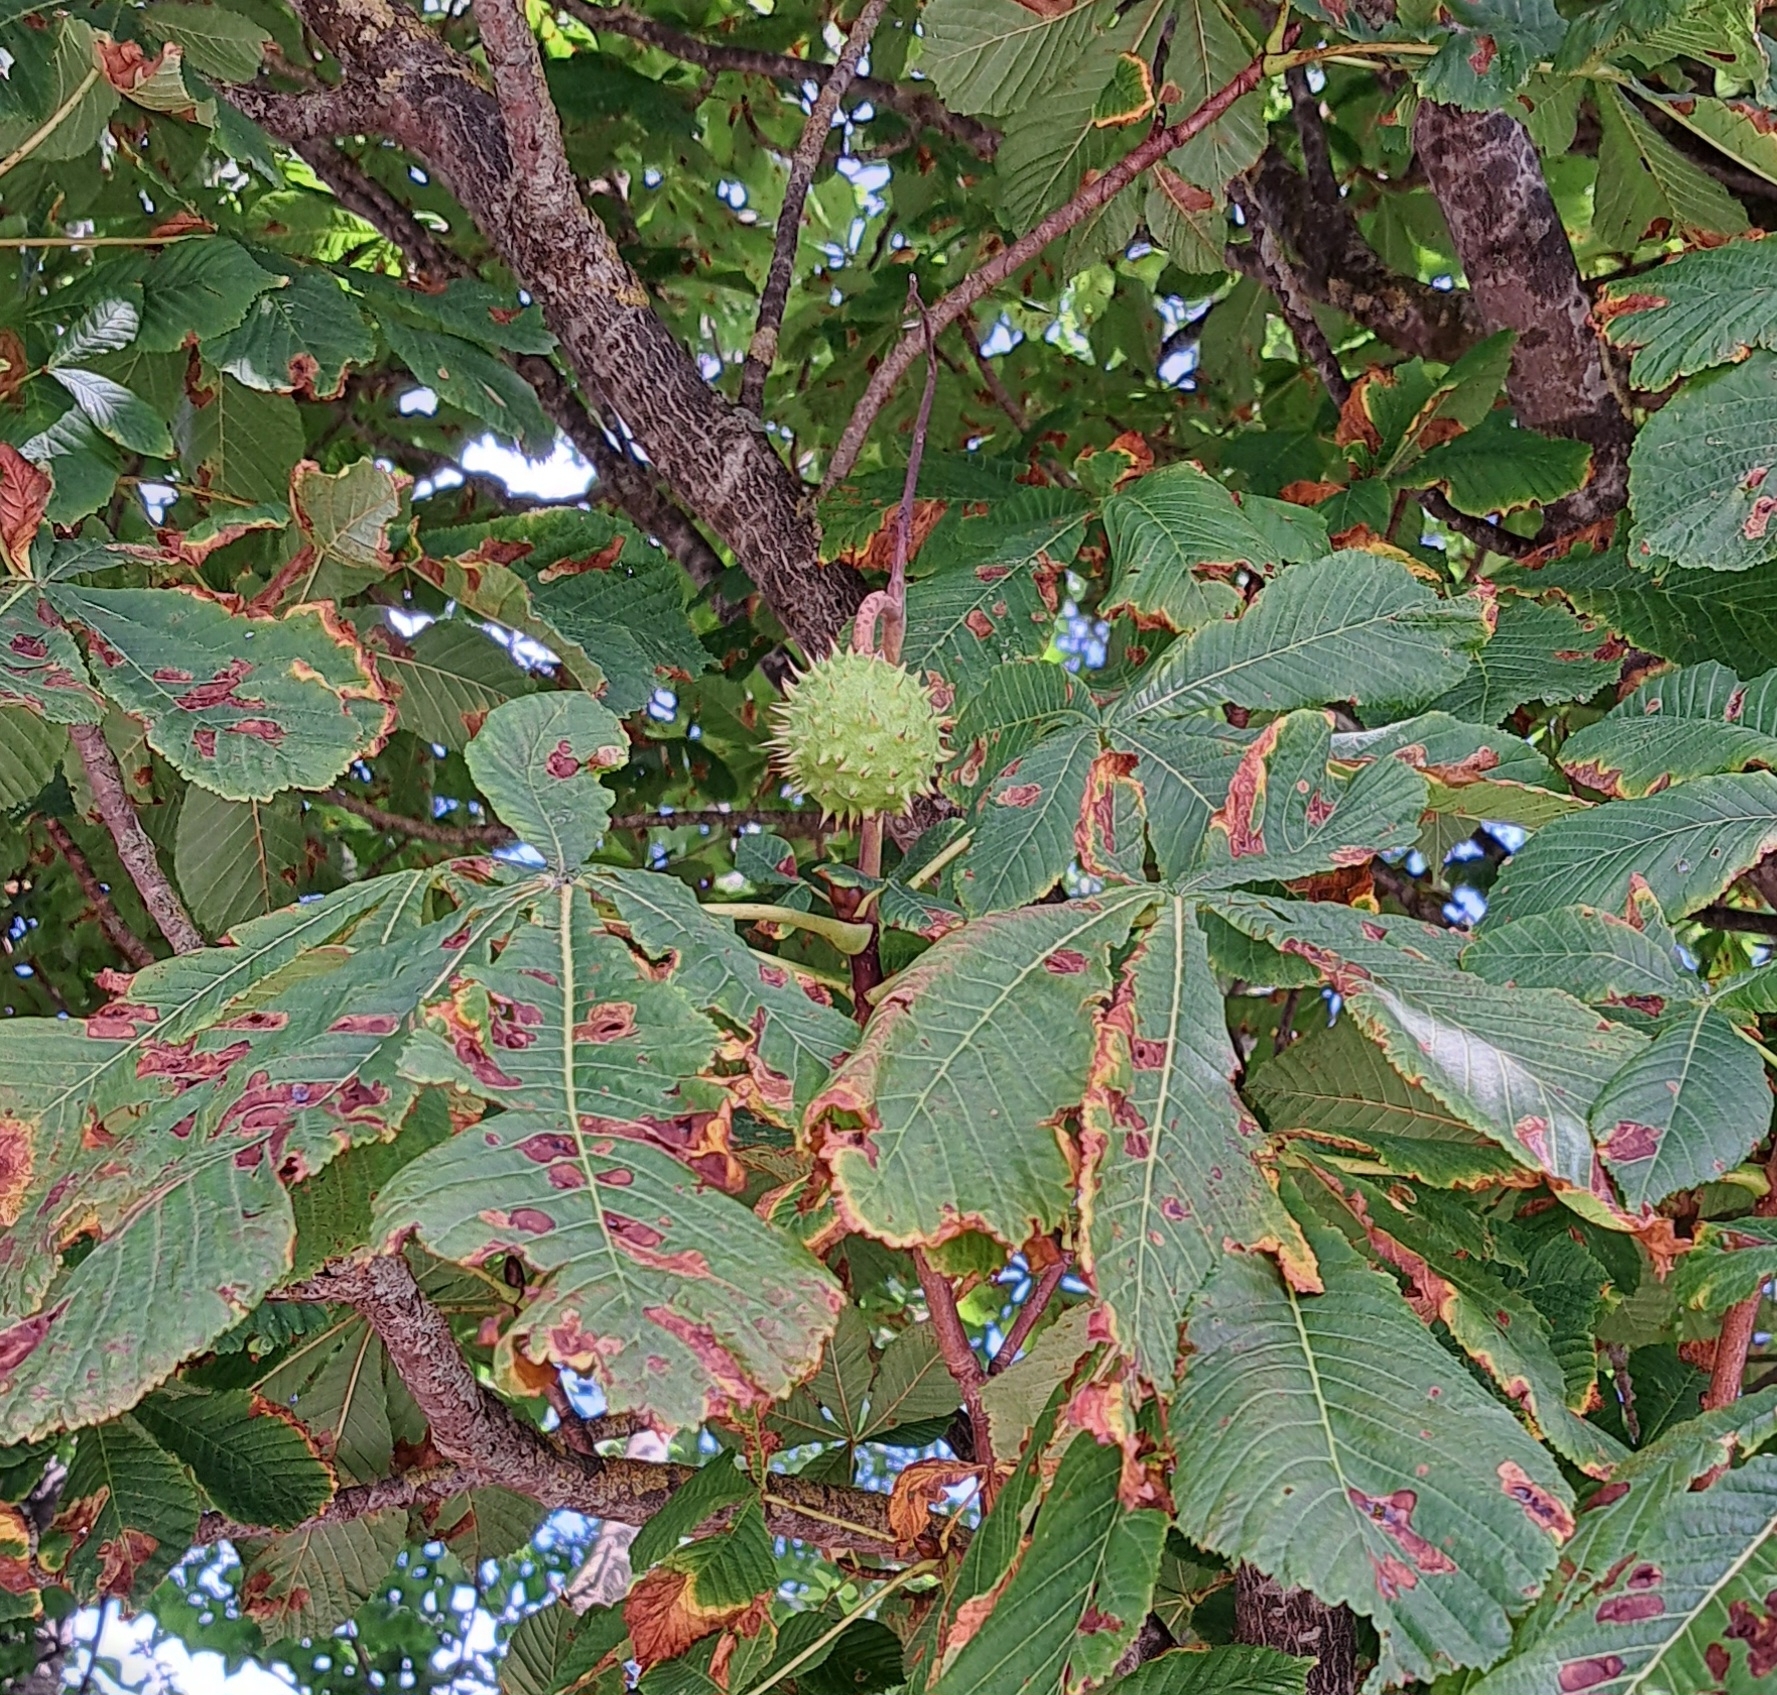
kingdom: Plantae
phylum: Tracheophyta
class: Magnoliopsida
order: Sapindales
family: Sapindaceae
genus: Aesculus
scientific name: Aesculus hippocastanum
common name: Horse-chestnut
